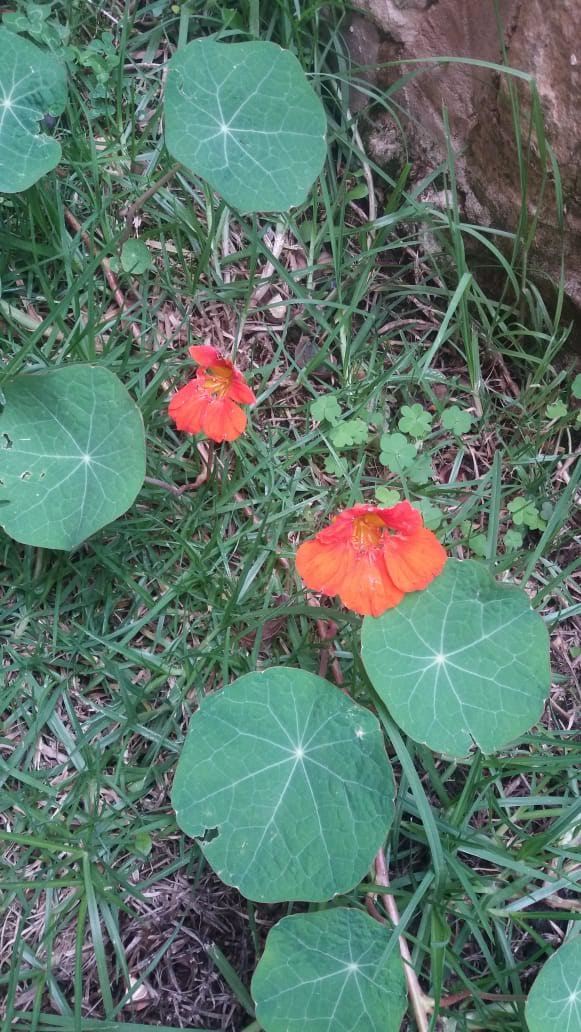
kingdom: Plantae
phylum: Tracheophyta
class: Magnoliopsida
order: Brassicales
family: Tropaeolaceae
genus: Tropaeolum
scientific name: Tropaeolum majus
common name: Nasturtium
